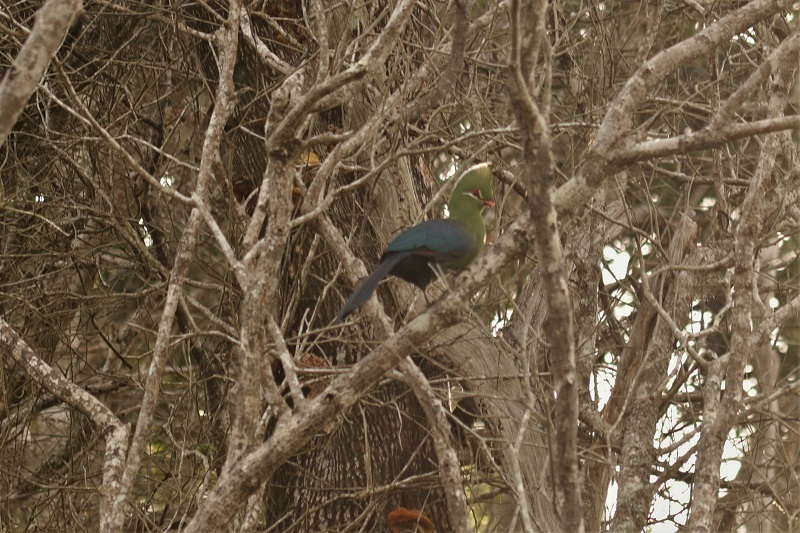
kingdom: Animalia
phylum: Chordata
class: Aves
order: Musophagiformes
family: Musophagidae
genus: Tauraco
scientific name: Tauraco corythaix
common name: Knysna turaco
